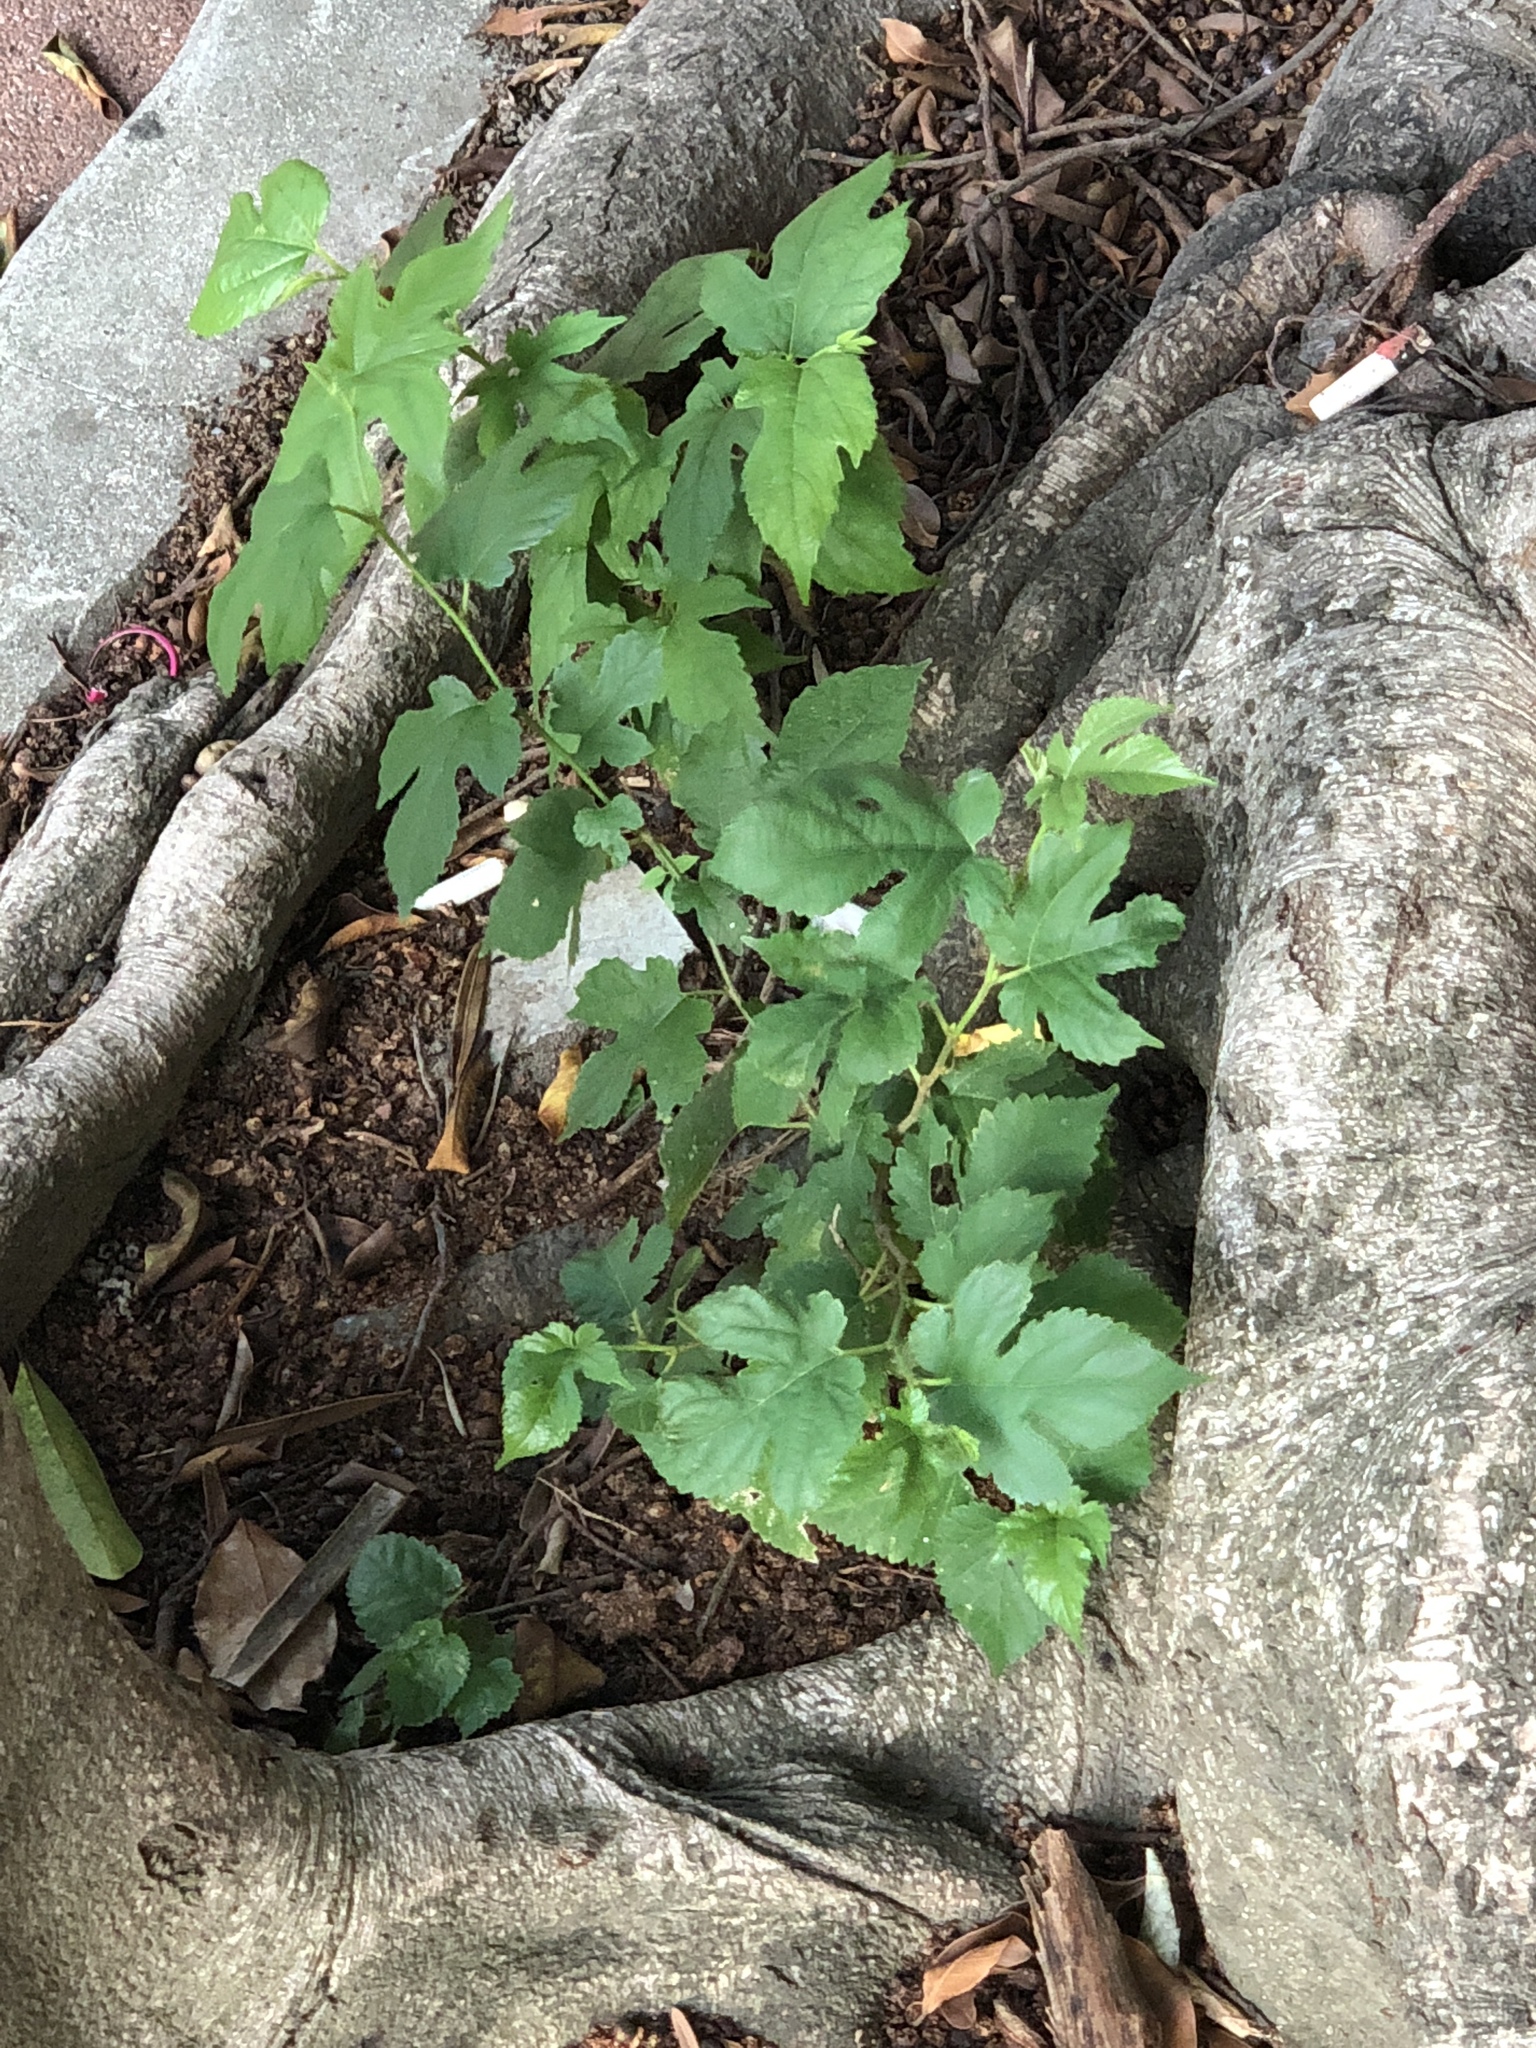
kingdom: Plantae
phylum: Tracheophyta
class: Magnoliopsida
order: Rosales
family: Moraceae
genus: Morus
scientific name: Morus indica
